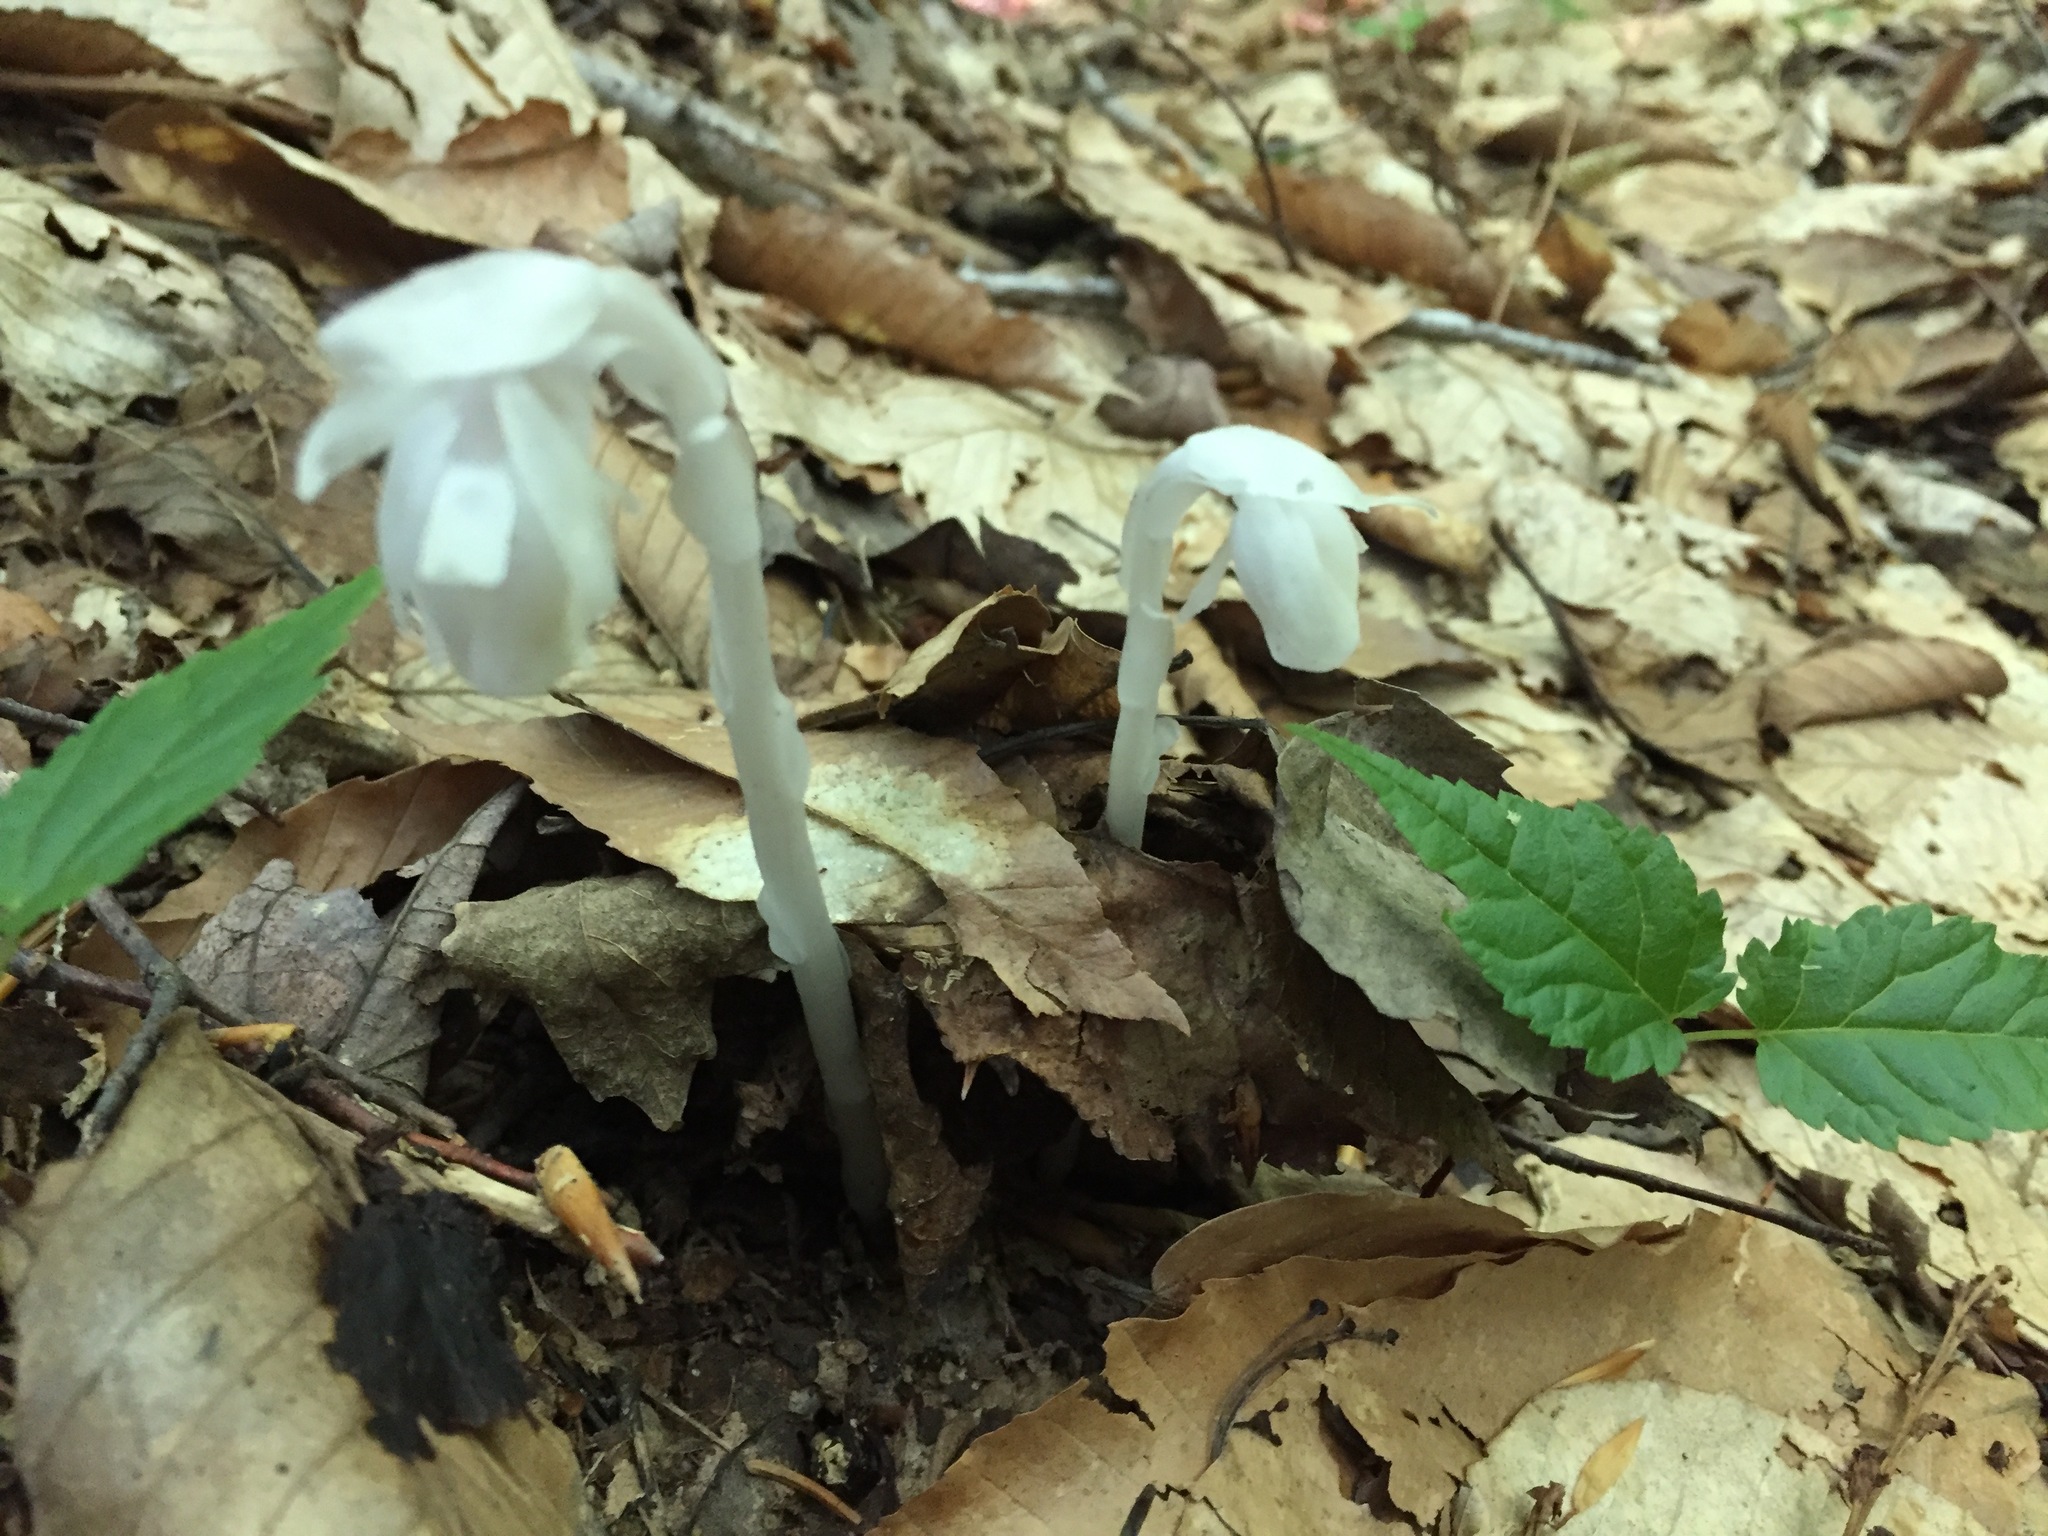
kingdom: Plantae
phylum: Tracheophyta
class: Magnoliopsida
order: Ericales
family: Ericaceae
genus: Monotropa
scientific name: Monotropa uniflora
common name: Convulsion root
